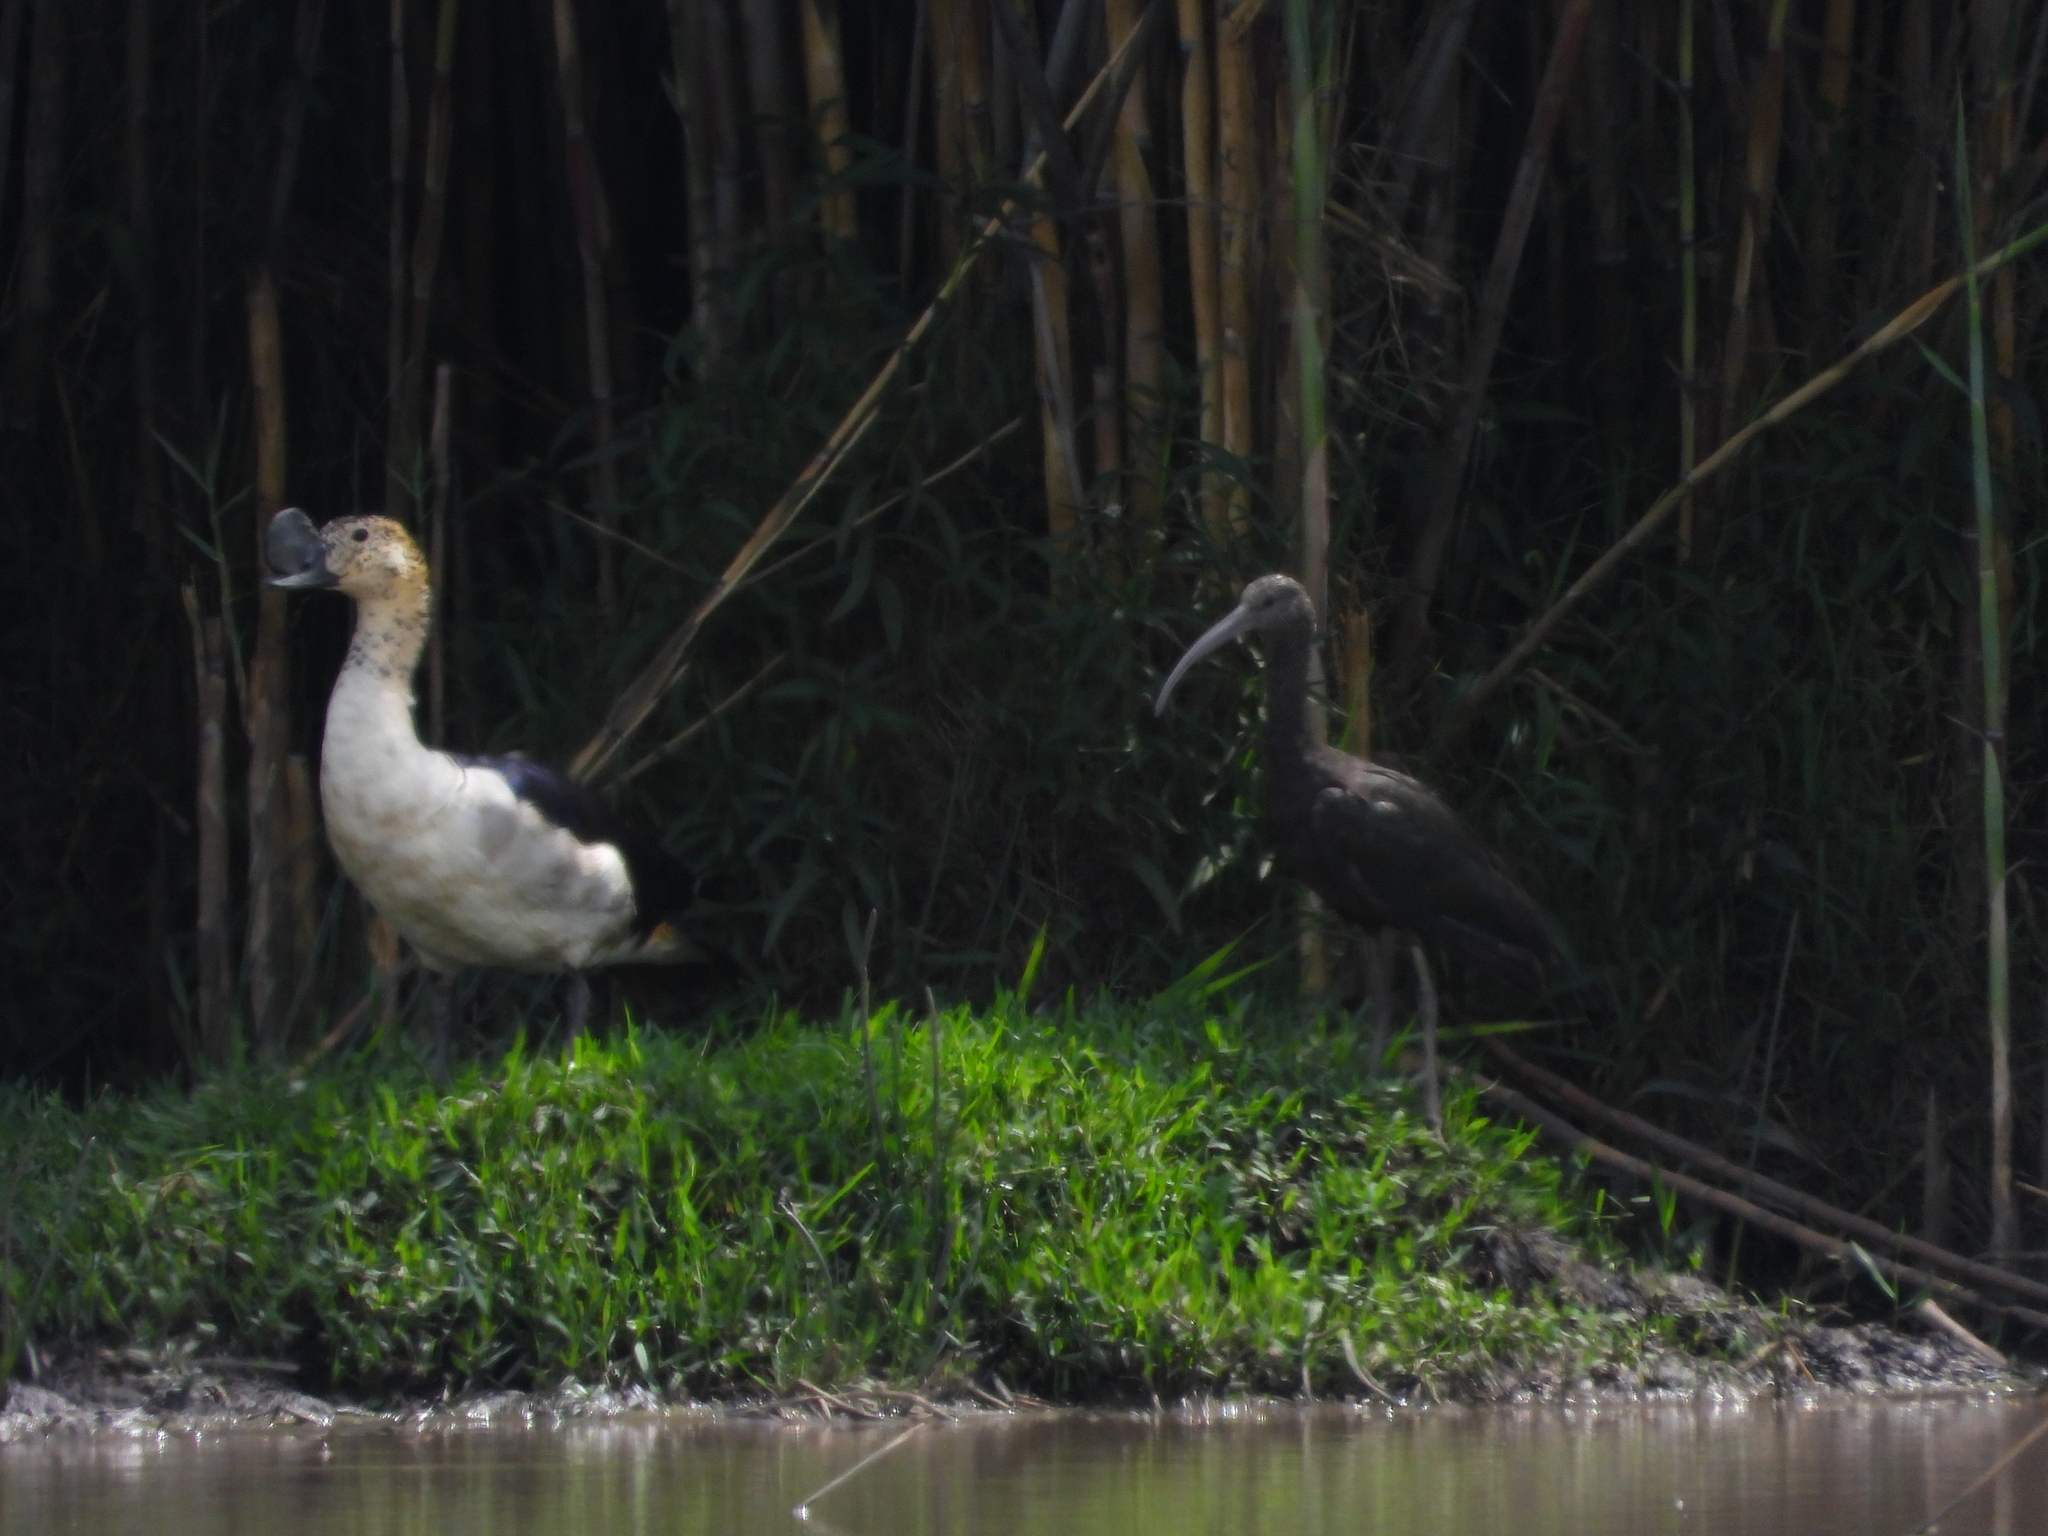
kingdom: Animalia
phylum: Chordata
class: Aves
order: Anseriformes
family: Anatidae
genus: Sarkidiornis
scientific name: Sarkidiornis melanotos
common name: Comb duck
